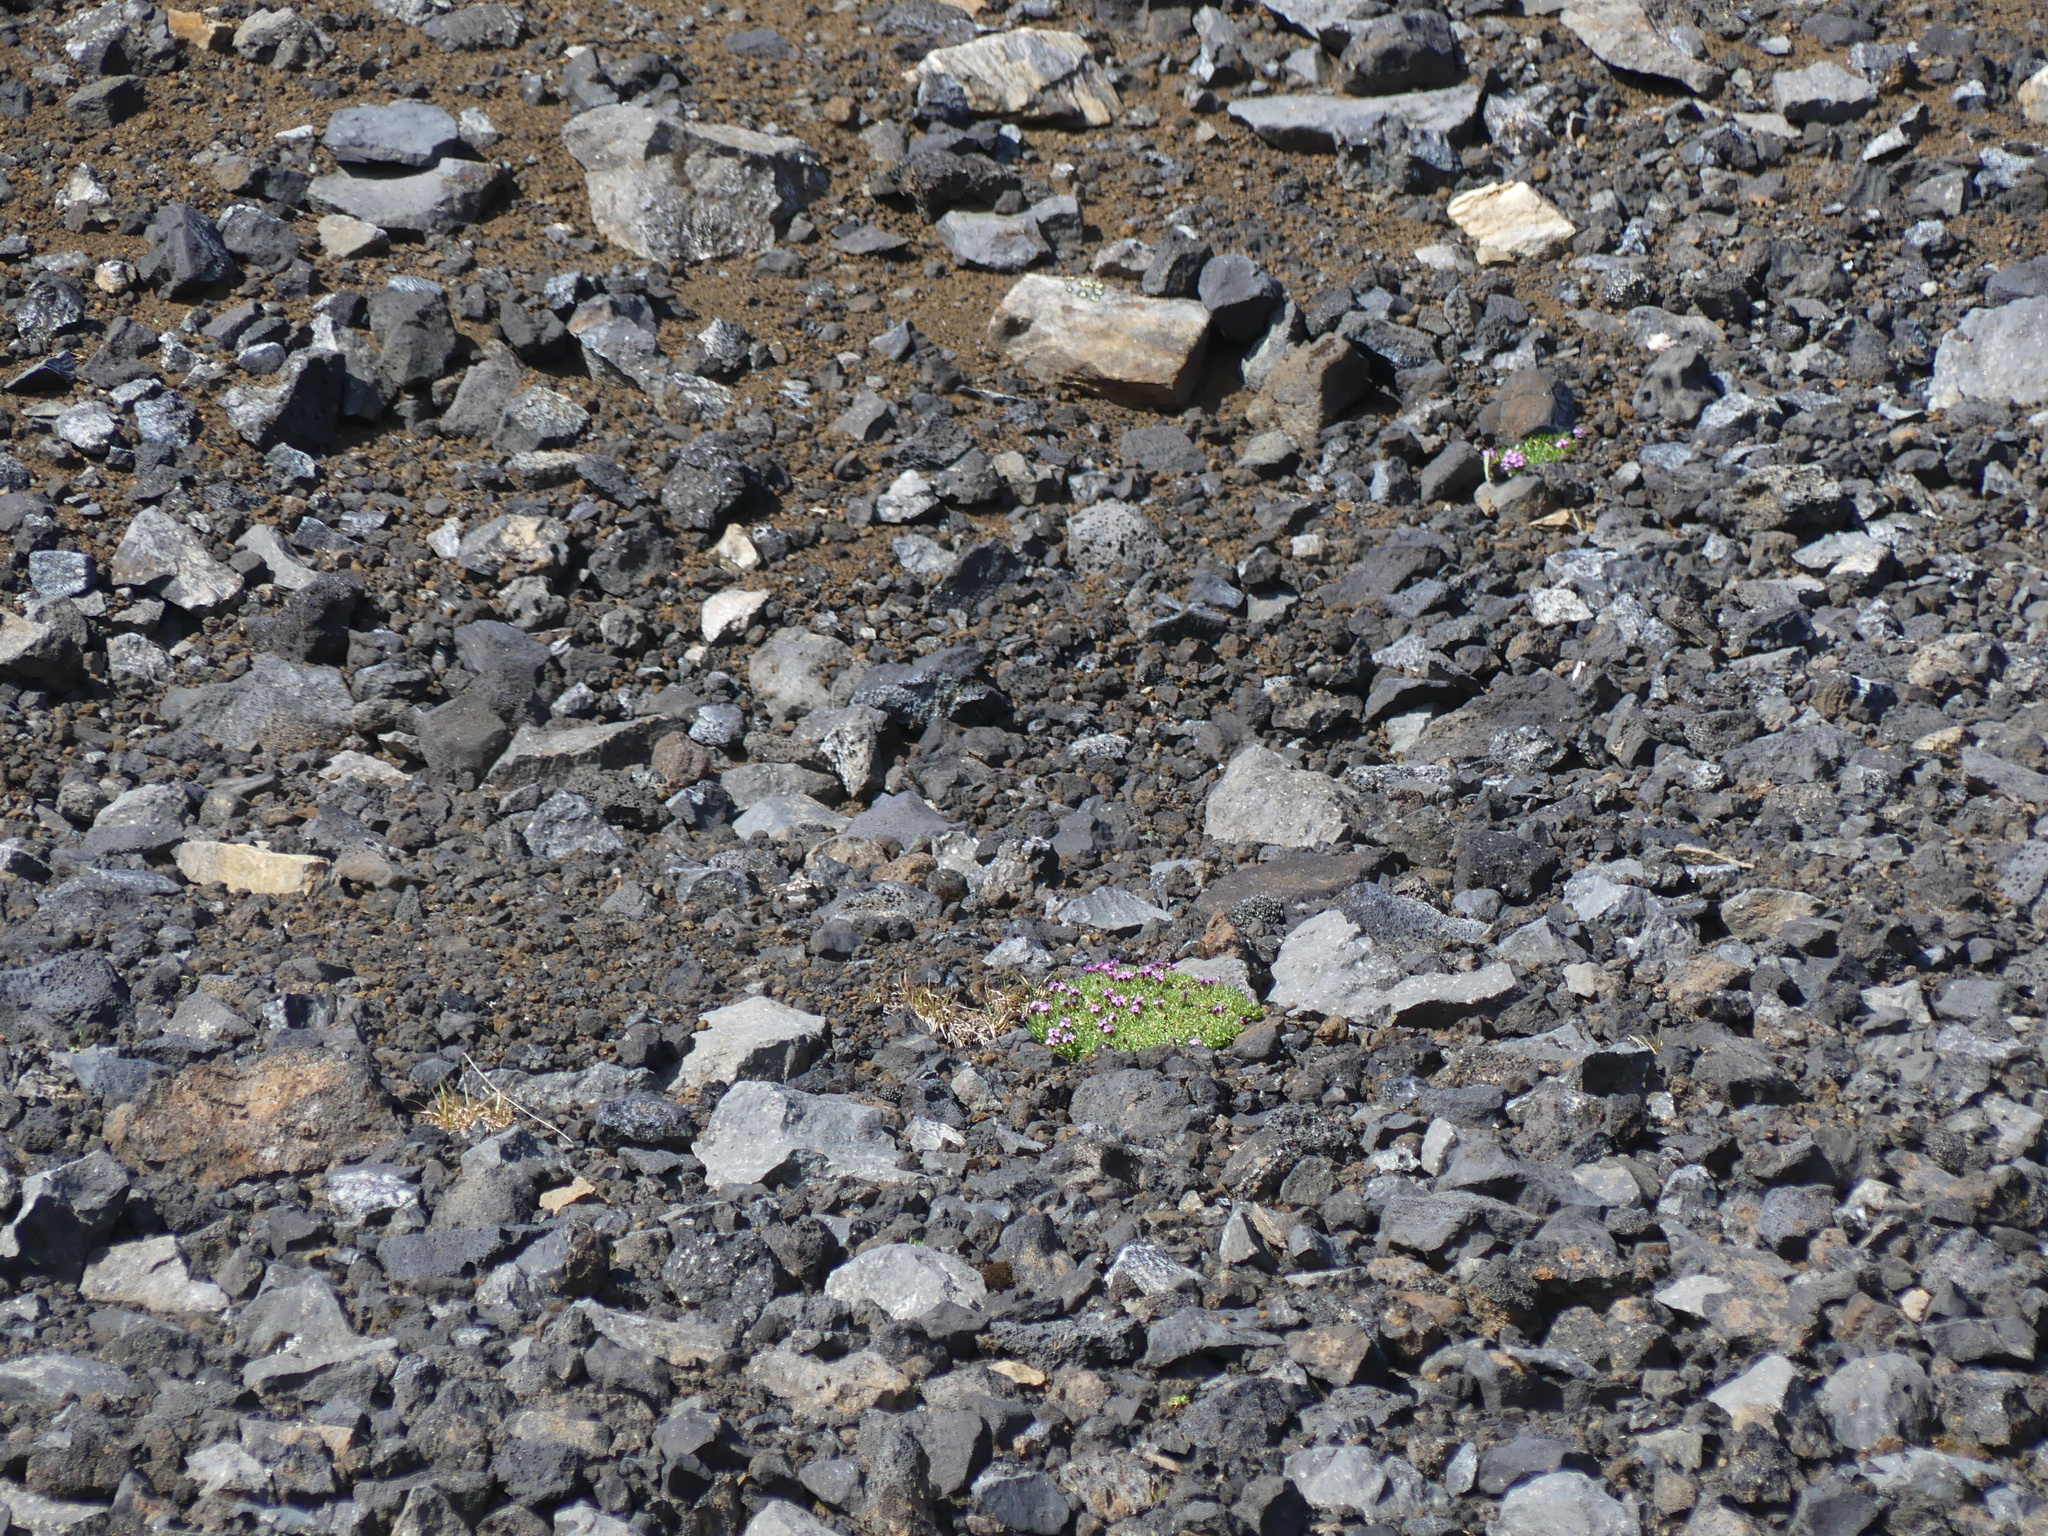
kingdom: Plantae
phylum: Tracheophyta
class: Magnoliopsida
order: Caryophyllales
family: Caryophyllaceae
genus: Silene
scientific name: Silene acaulis
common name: Moss campion
